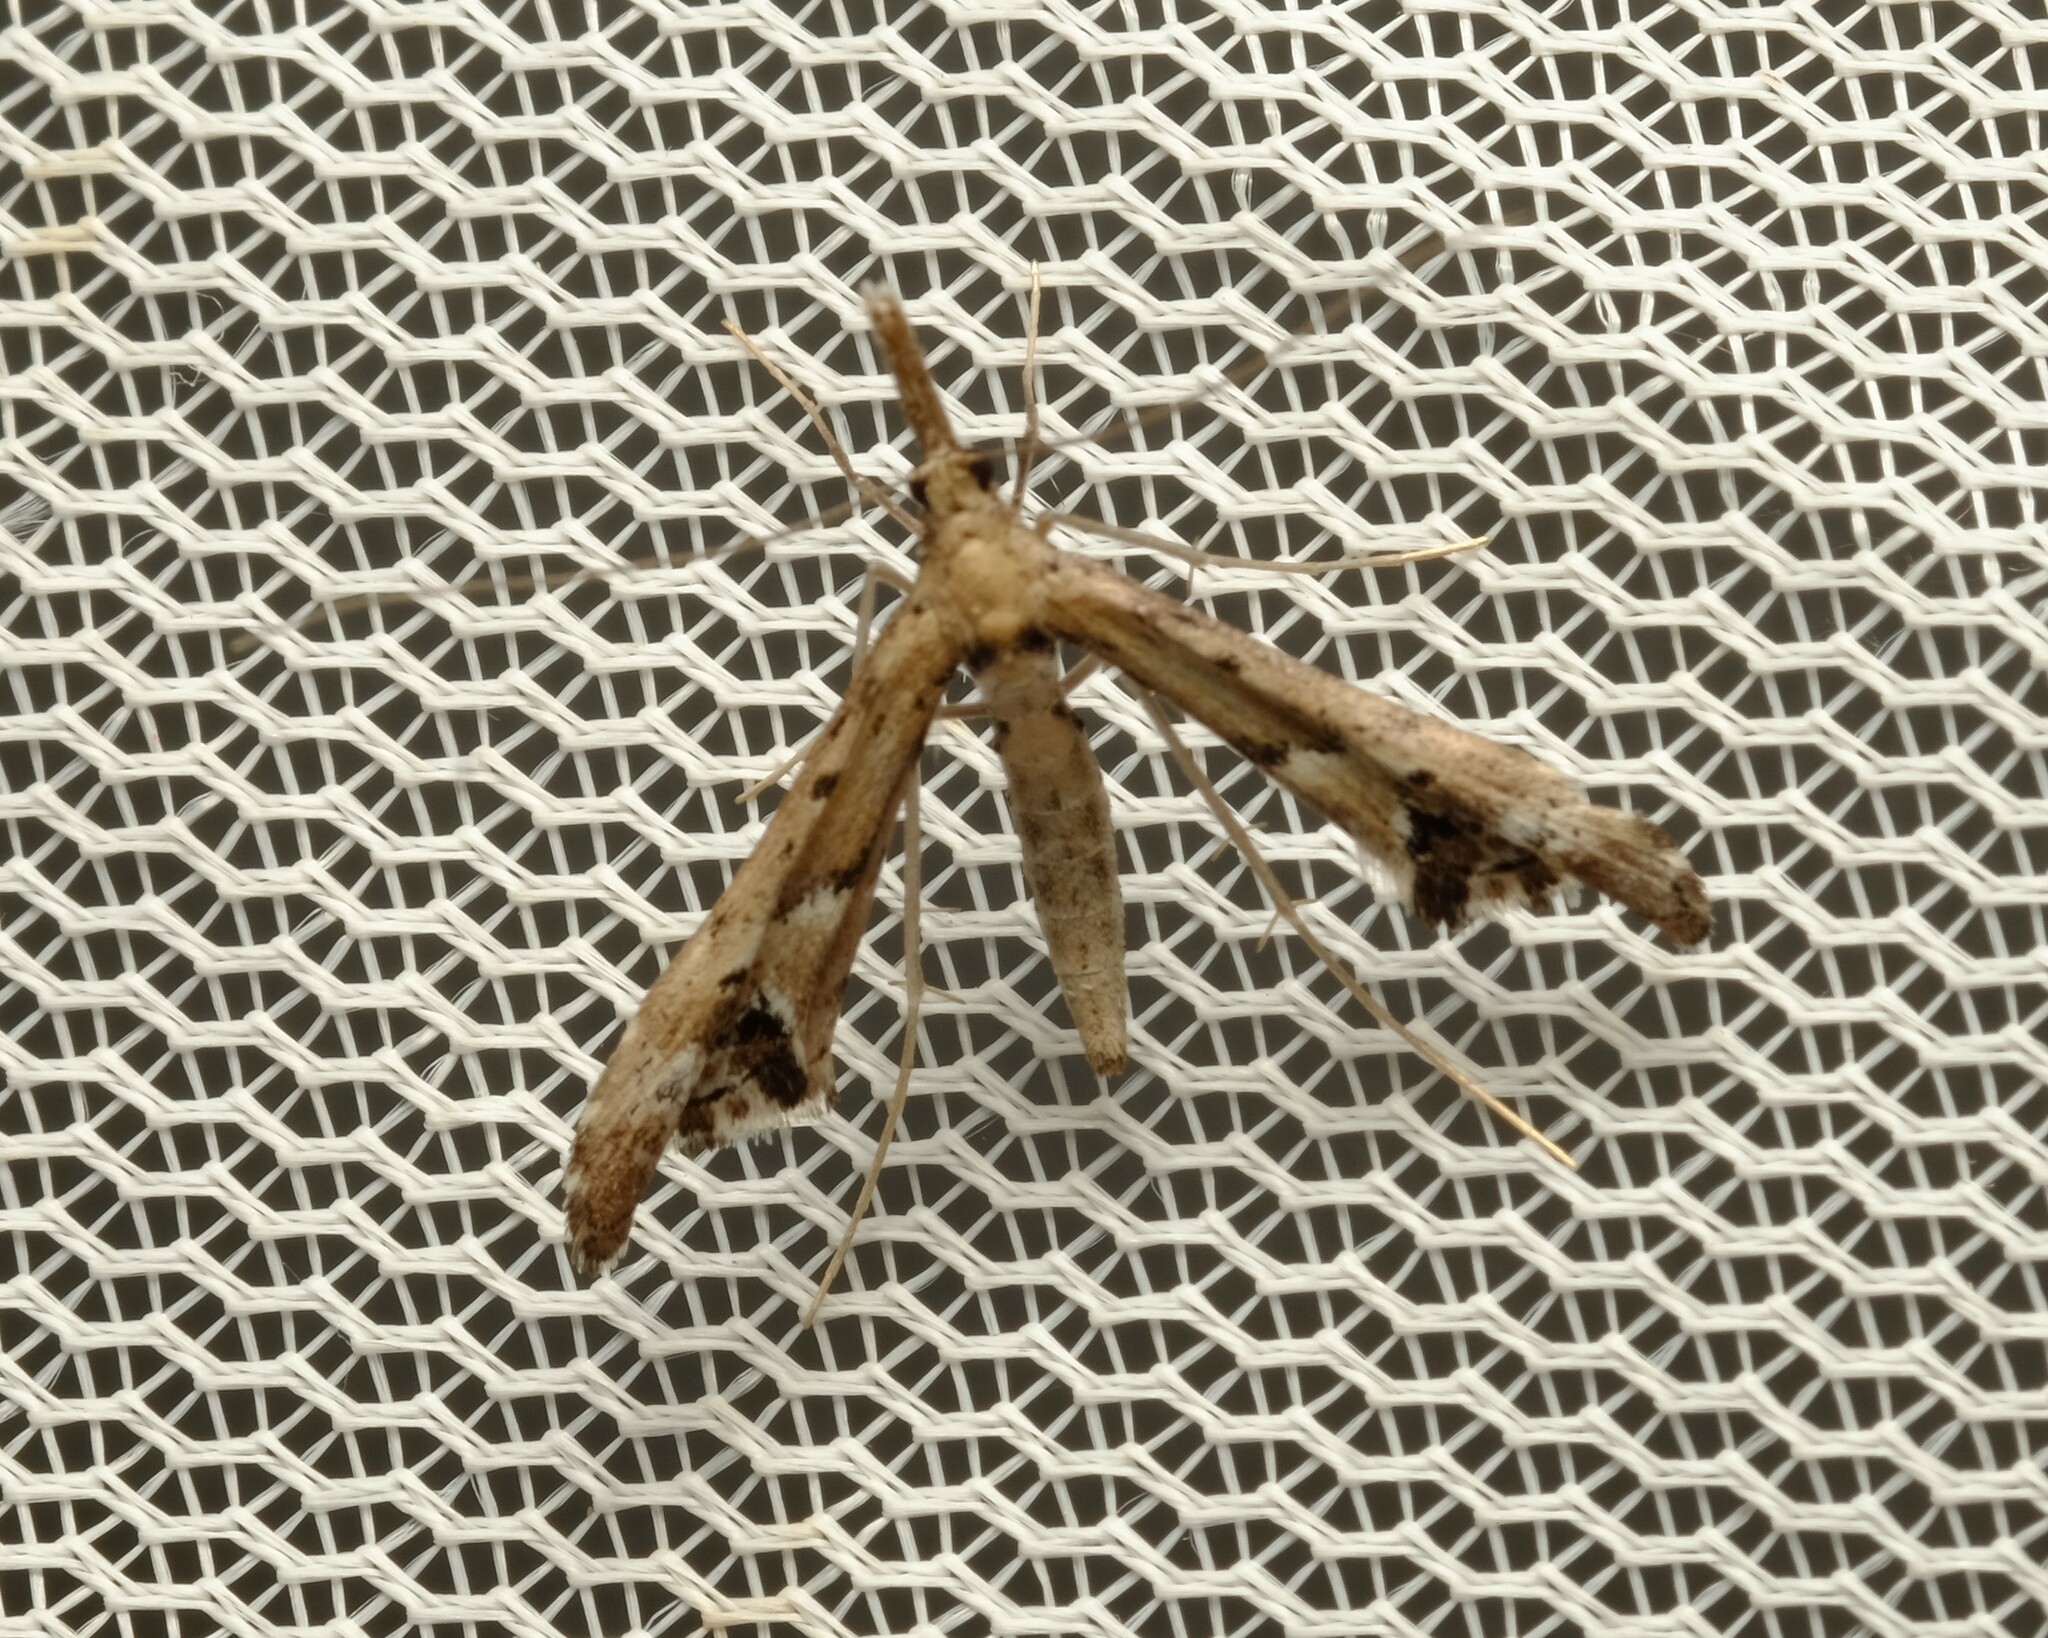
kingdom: Animalia
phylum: Arthropoda
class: Insecta
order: Lepidoptera
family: Alucitidae
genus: Tineodes
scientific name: Tineodes adactylalis
